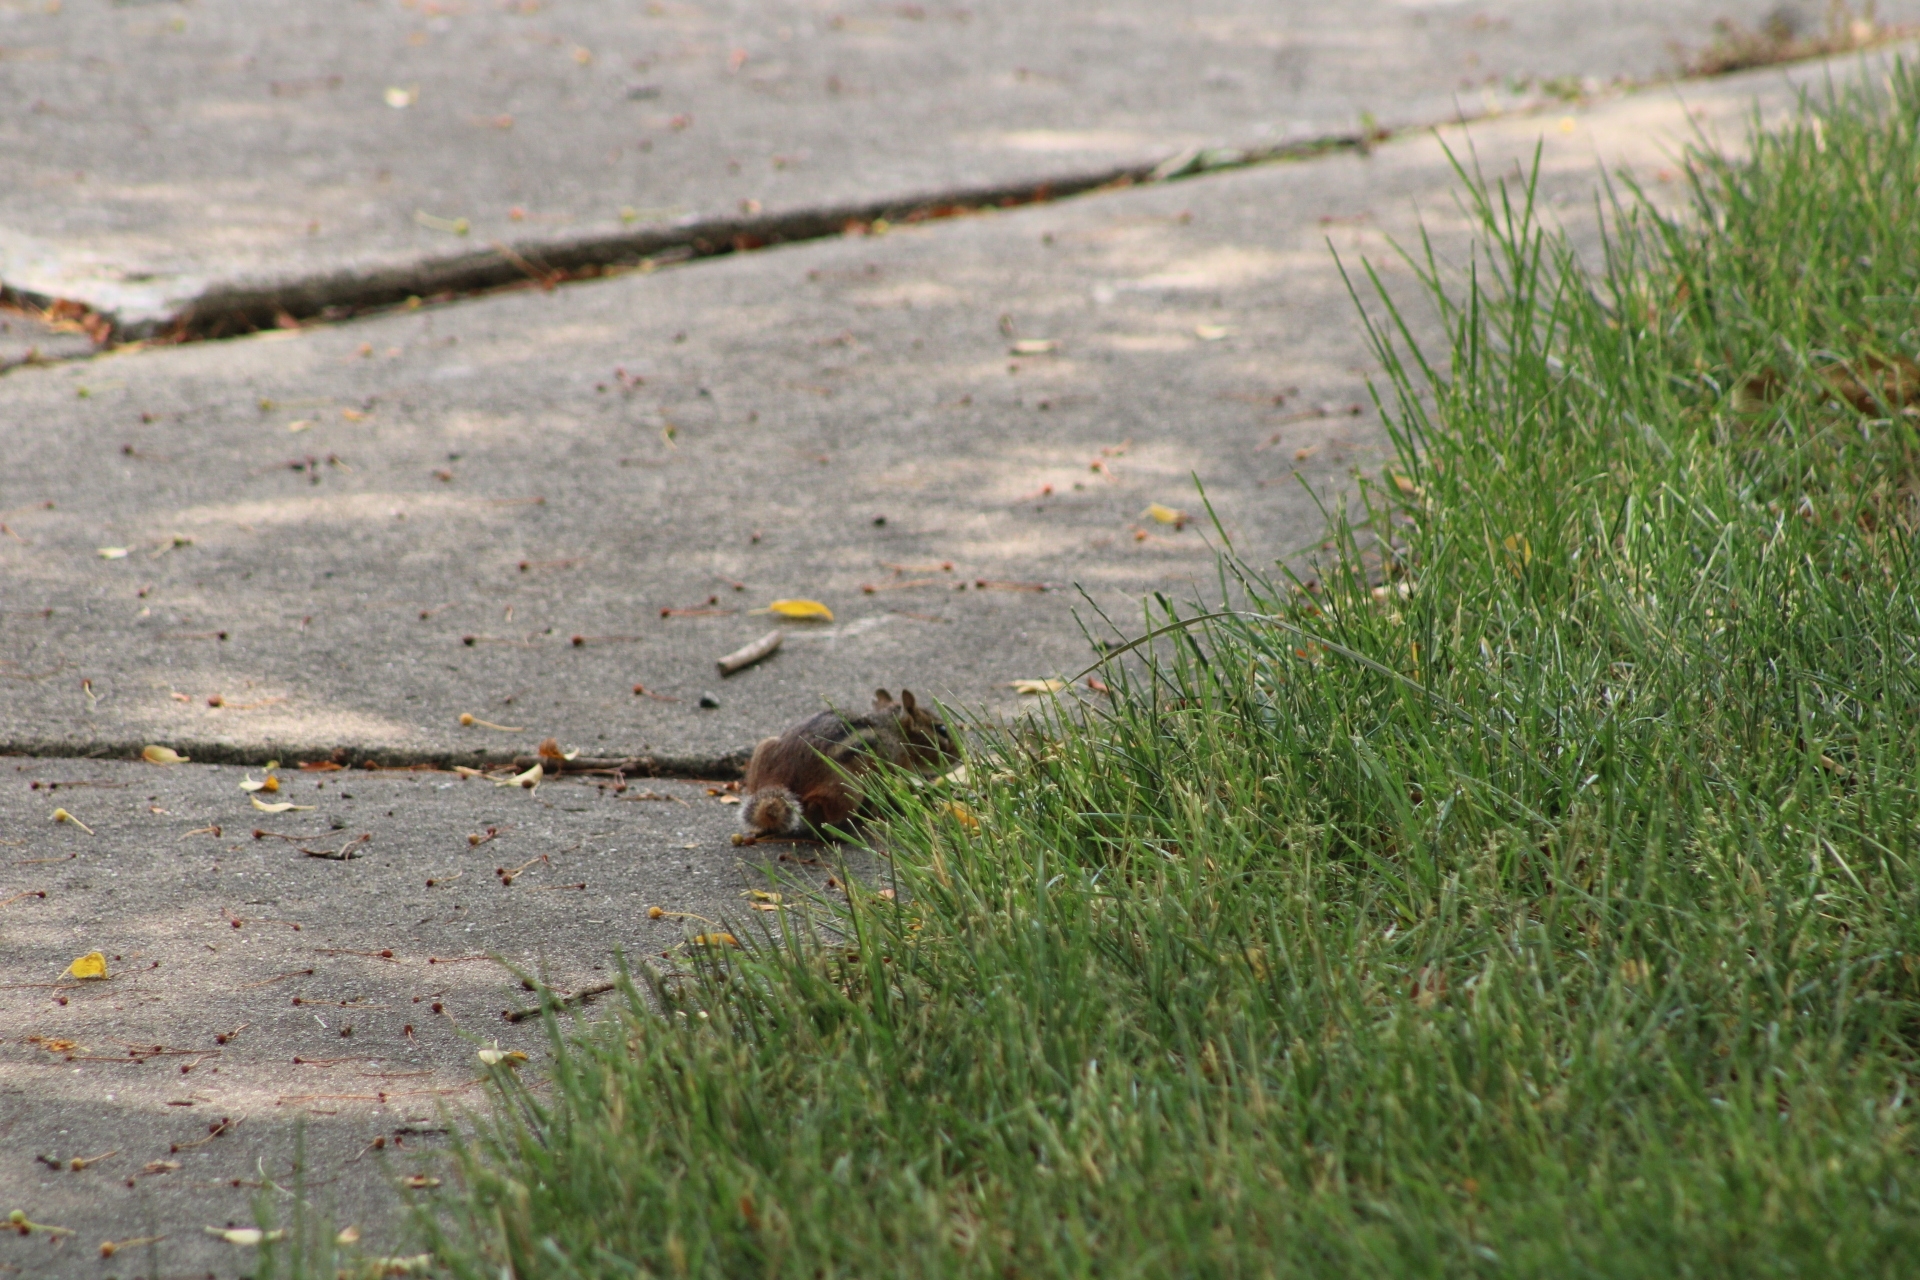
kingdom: Animalia
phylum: Chordata
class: Mammalia
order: Rodentia
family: Sciuridae
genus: Tamias
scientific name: Tamias striatus
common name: Eastern chipmunk
